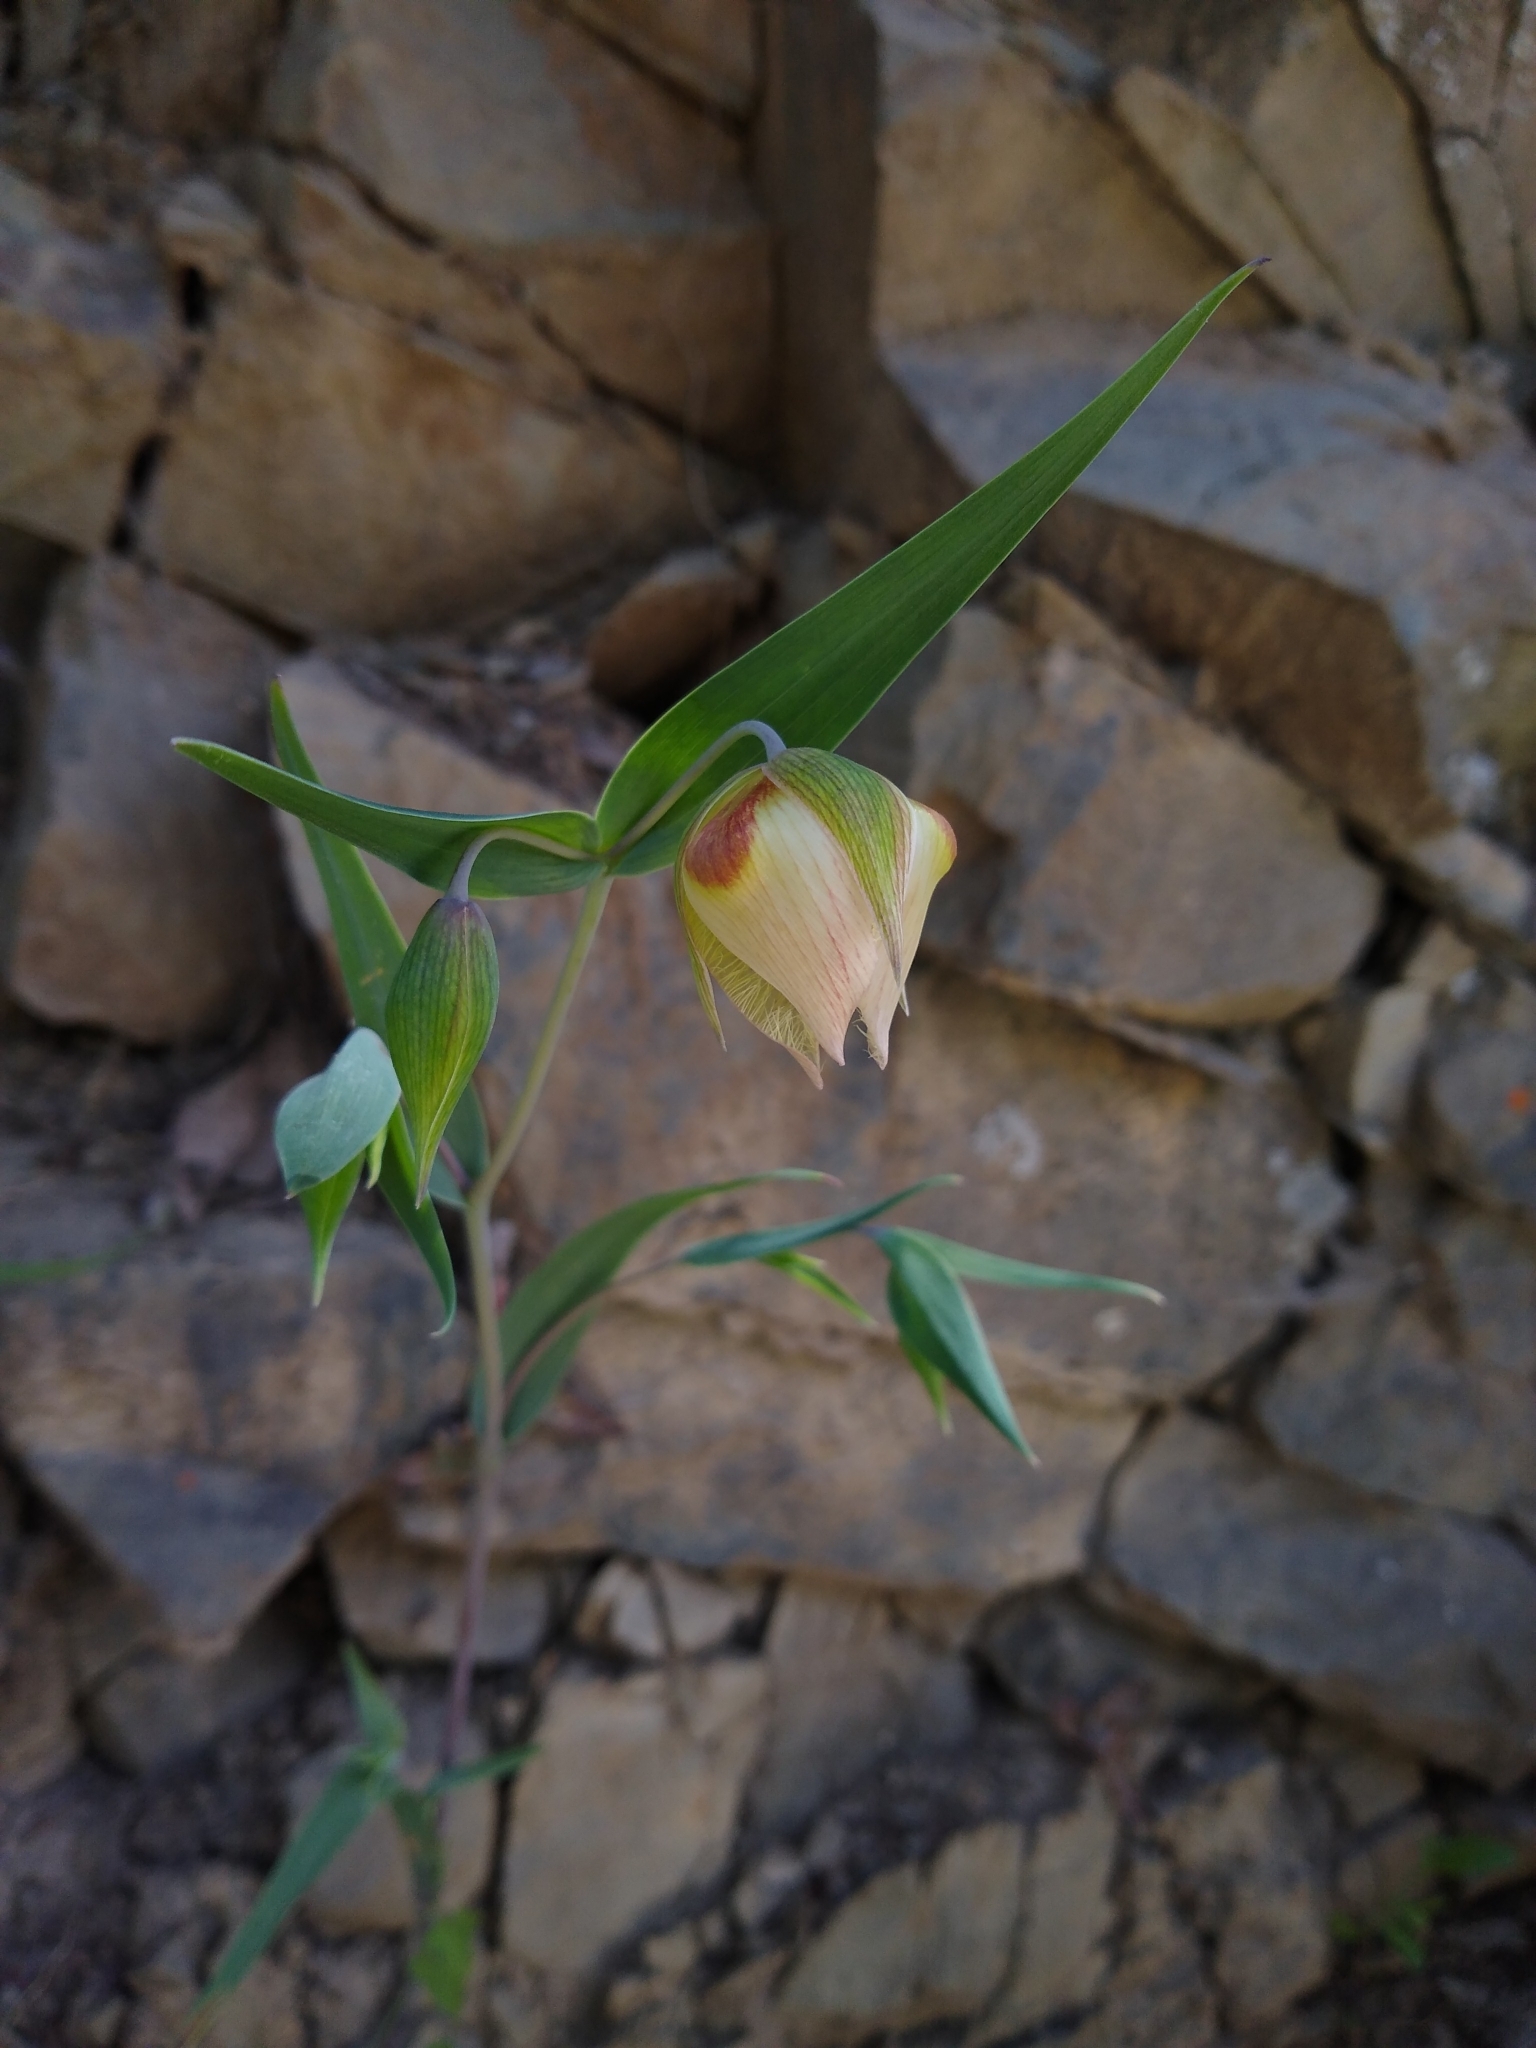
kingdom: Plantae
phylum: Tracheophyta
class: Liliopsida
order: Liliales
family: Liliaceae
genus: Calochortus
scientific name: Calochortus albus
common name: Fairy-lantern
